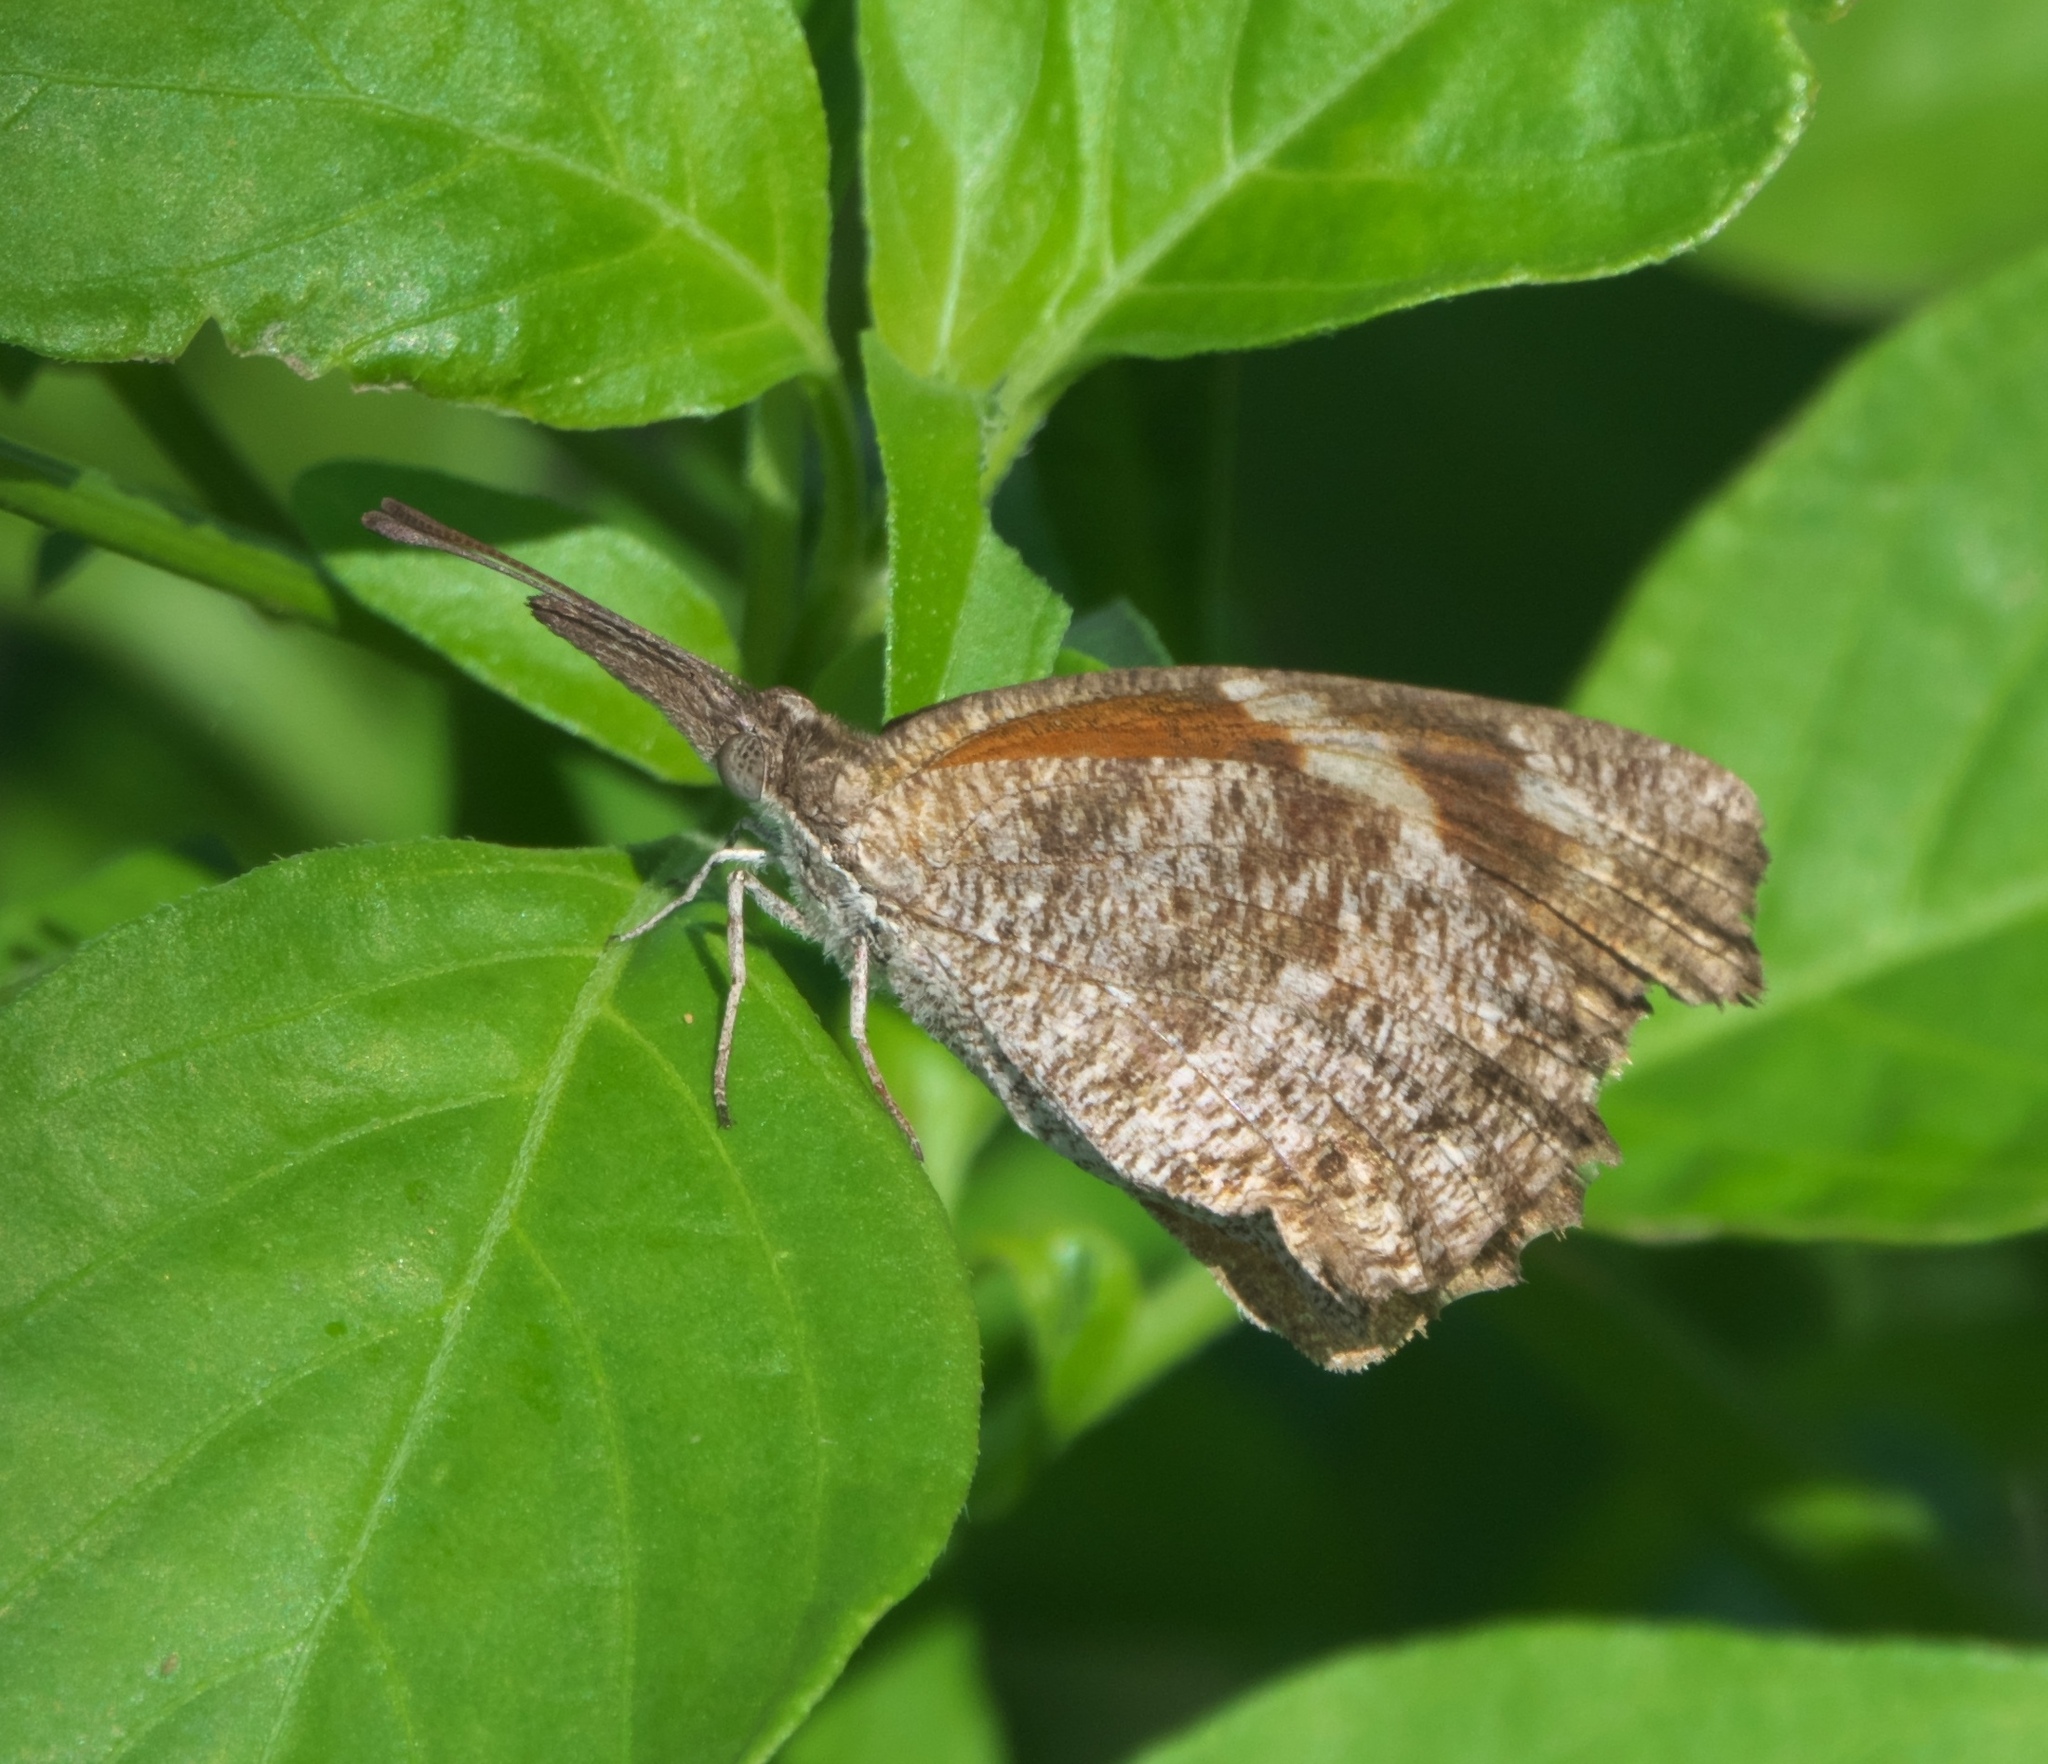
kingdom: Animalia
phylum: Arthropoda
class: Insecta
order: Lepidoptera
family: Nymphalidae
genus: Libytheana
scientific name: Libytheana carinenta
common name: American snout
